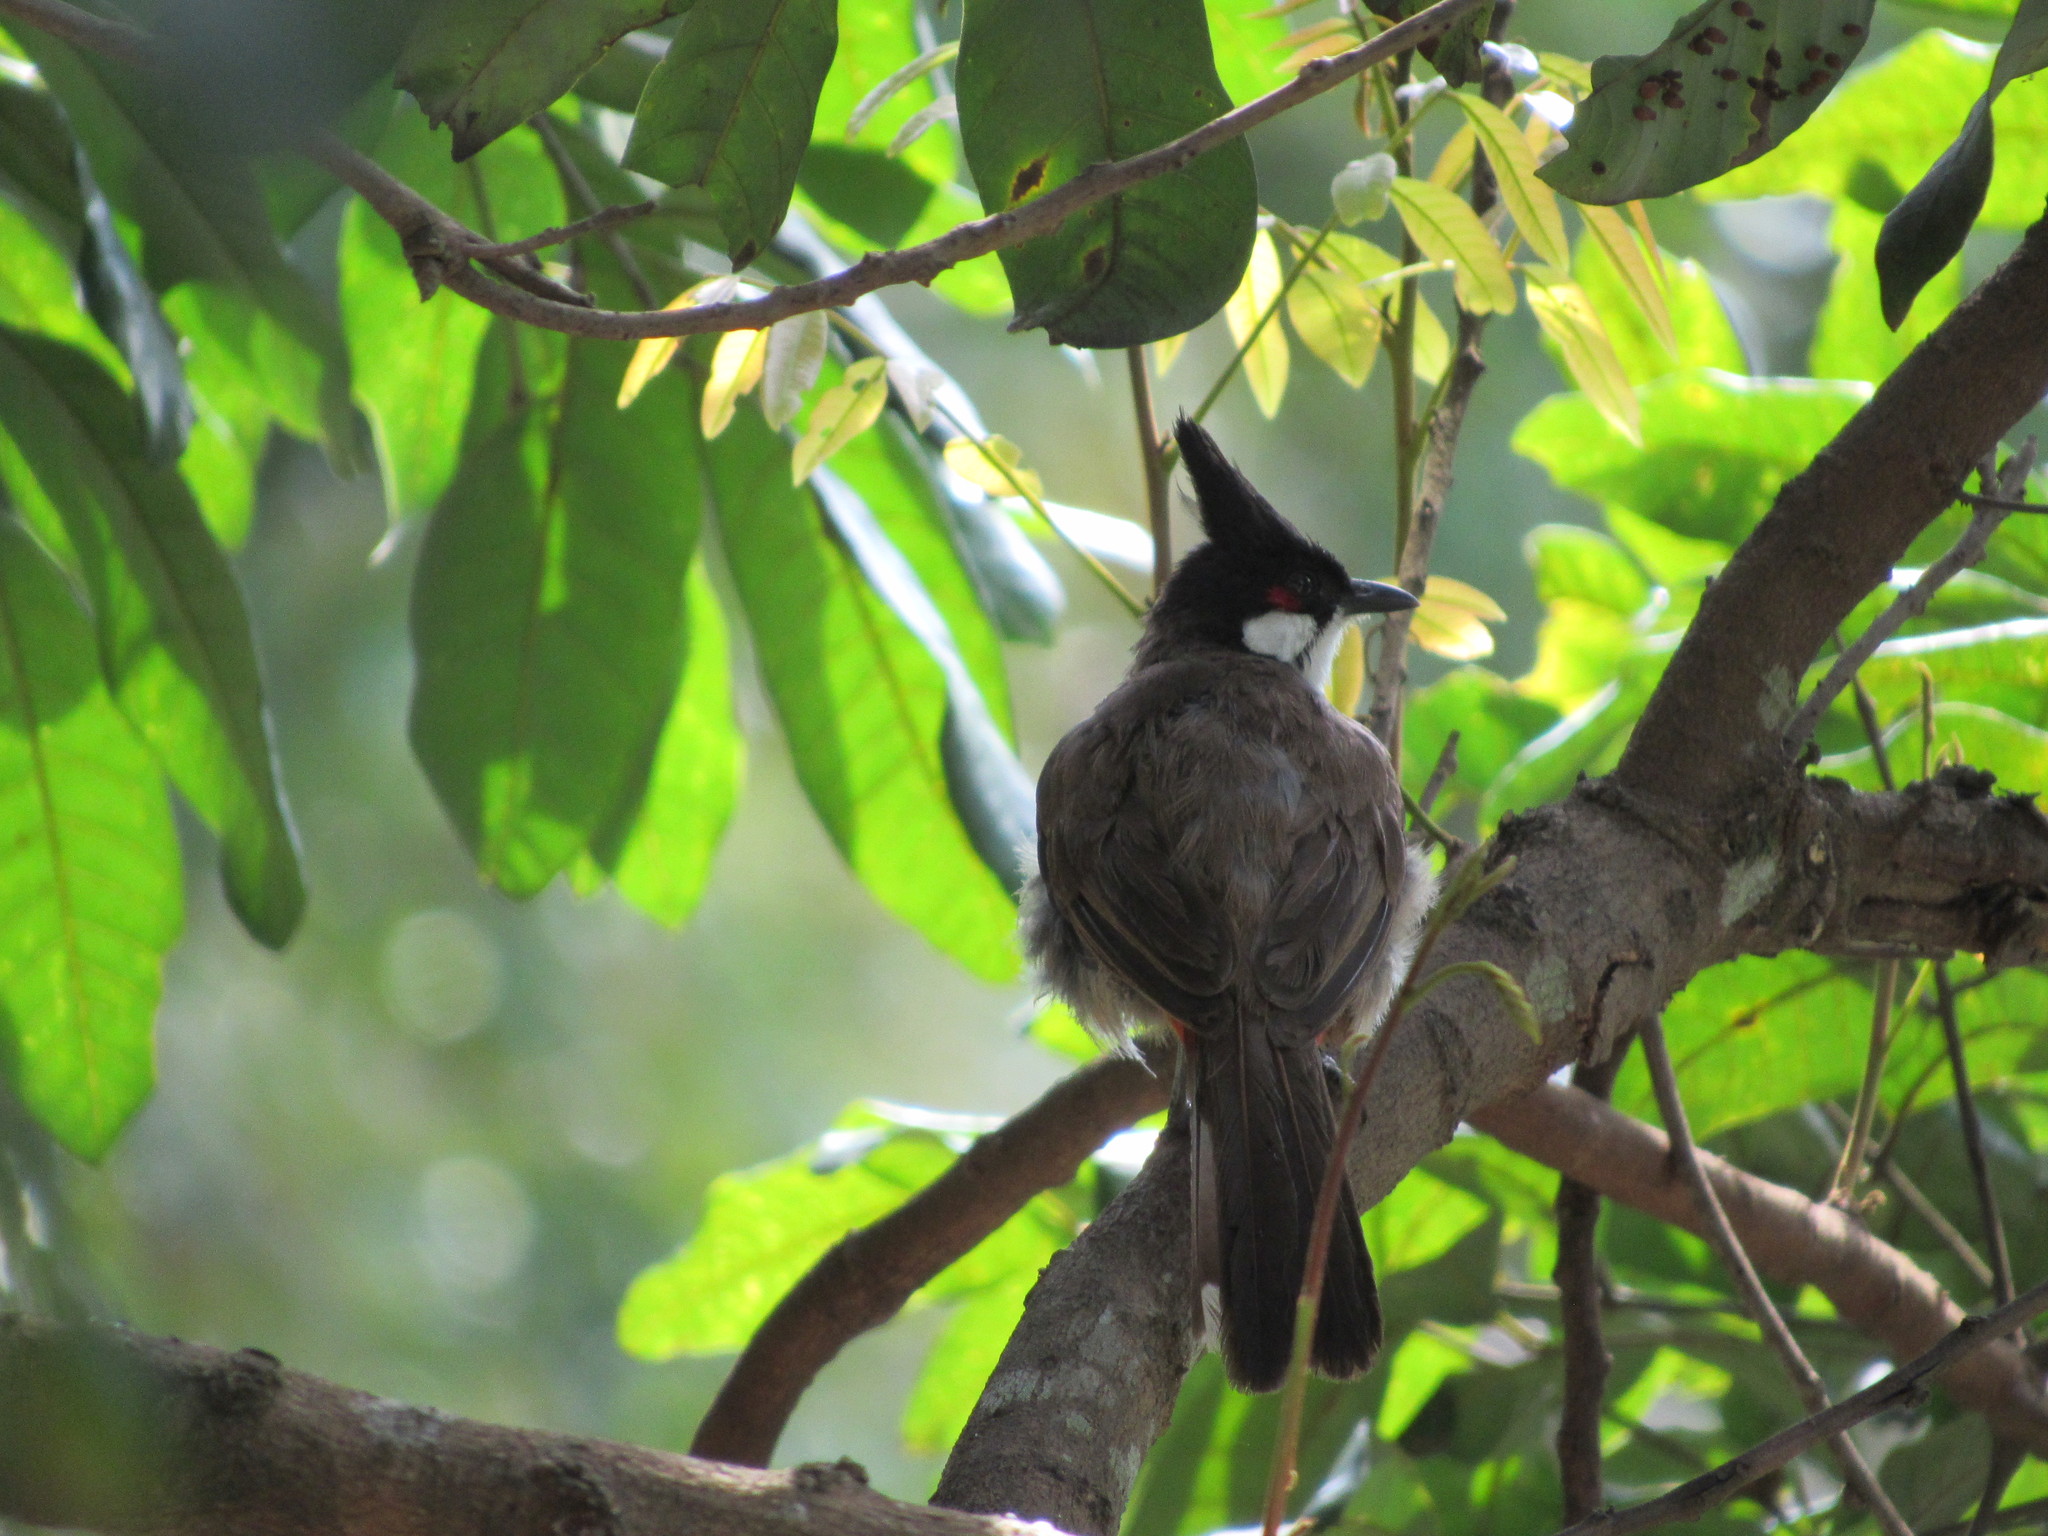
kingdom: Animalia
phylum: Chordata
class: Aves
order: Passeriformes
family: Pycnonotidae
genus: Pycnonotus
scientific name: Pycnonotus jocosus
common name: Red-whiskered bulbul
